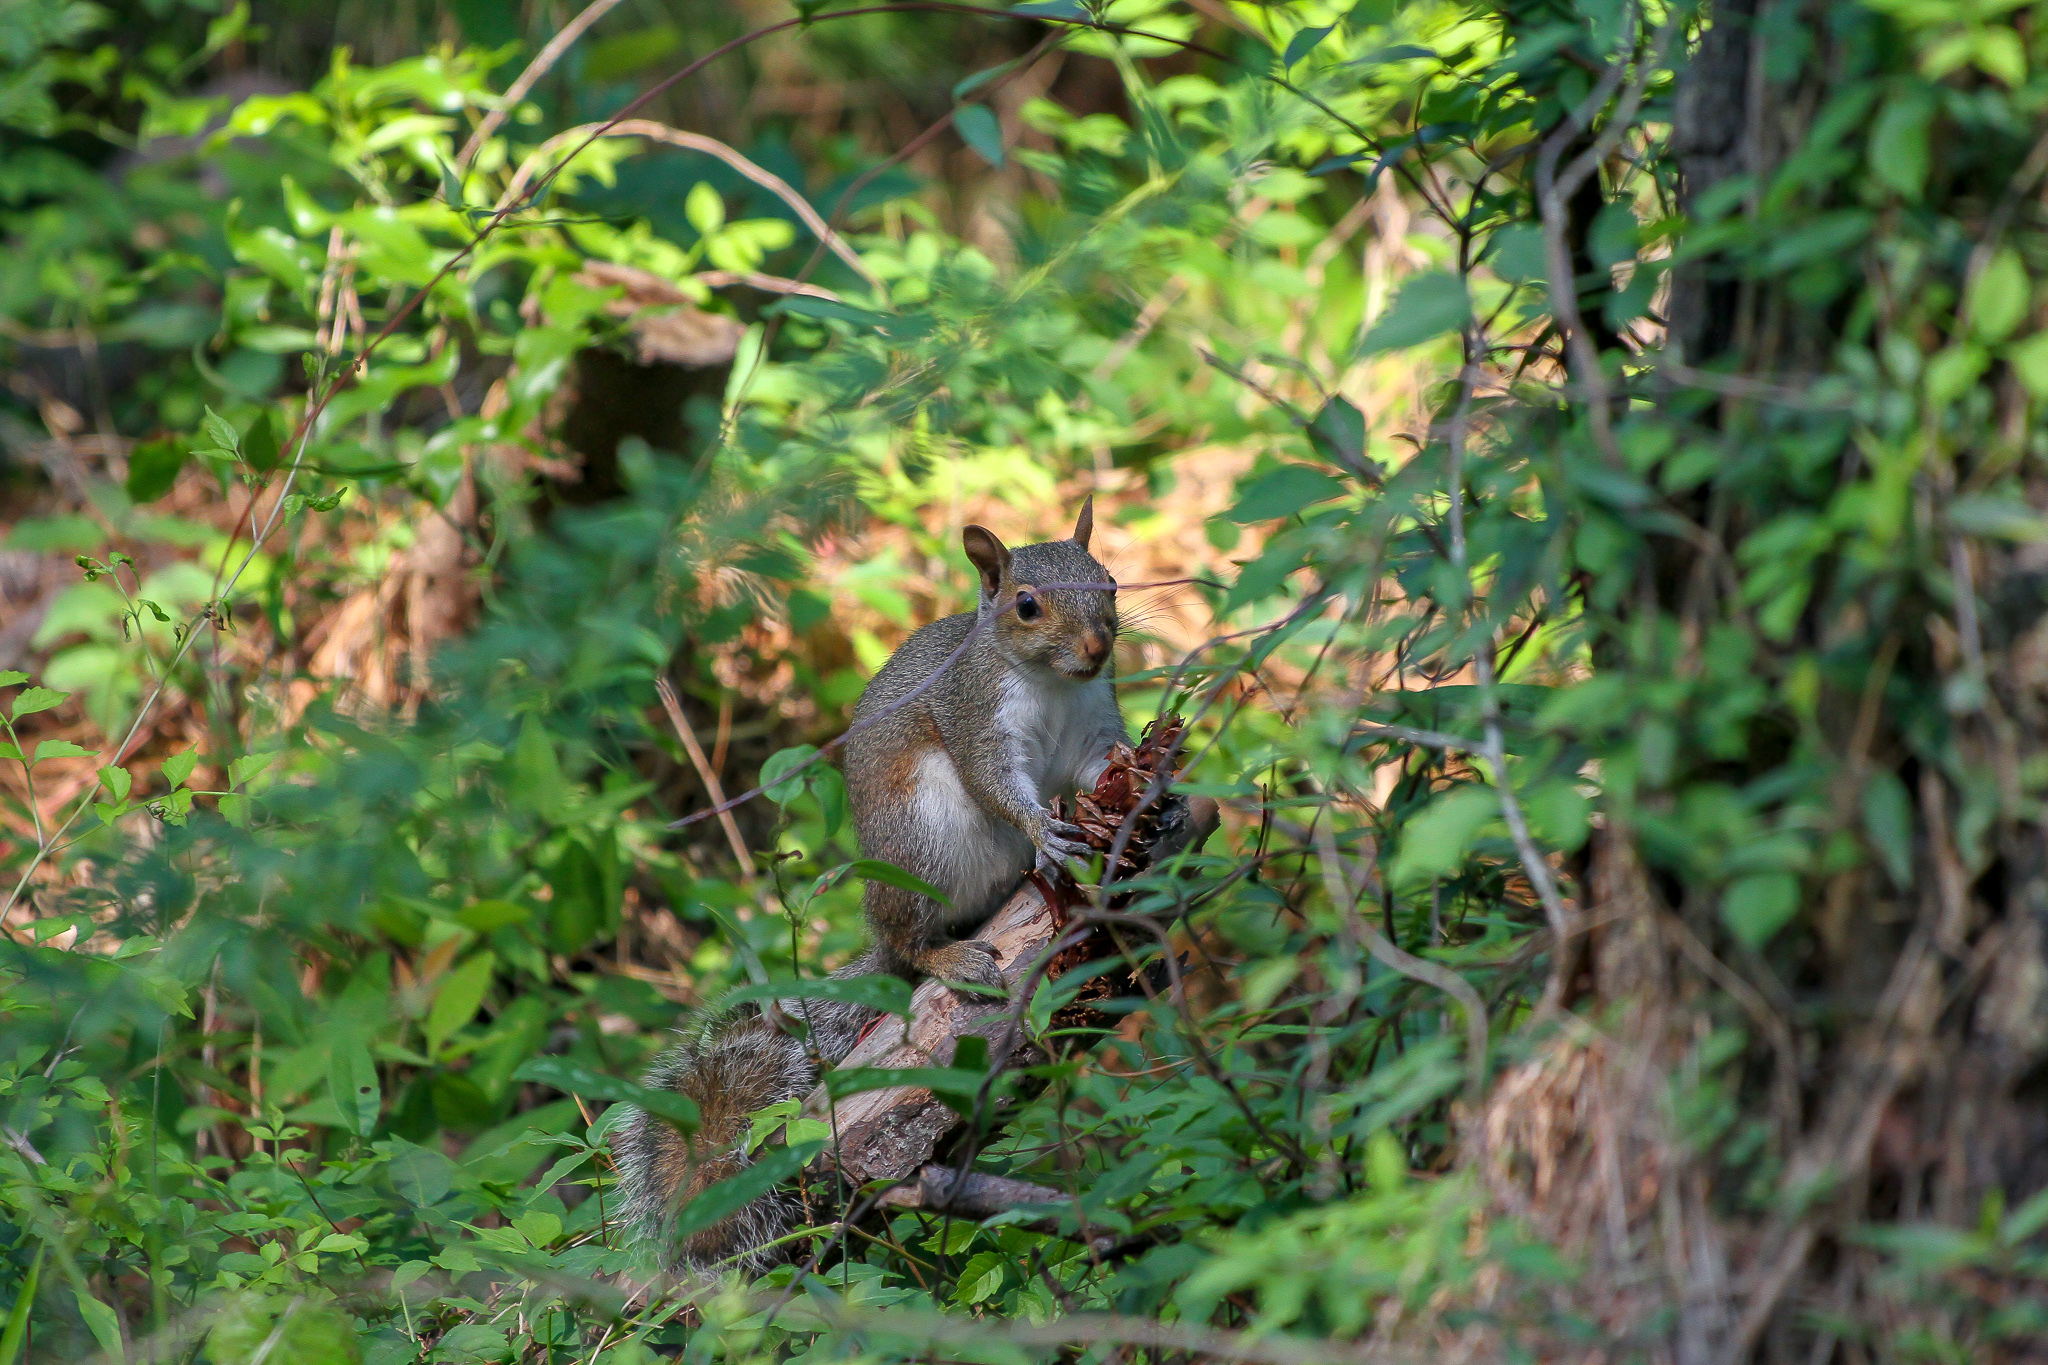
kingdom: Animalia
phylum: Chordata
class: Mammalia
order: Rodentia
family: Sciuridae
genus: Sciurus
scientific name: Sciurus carolinensis
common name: Eastern gray squirrel
